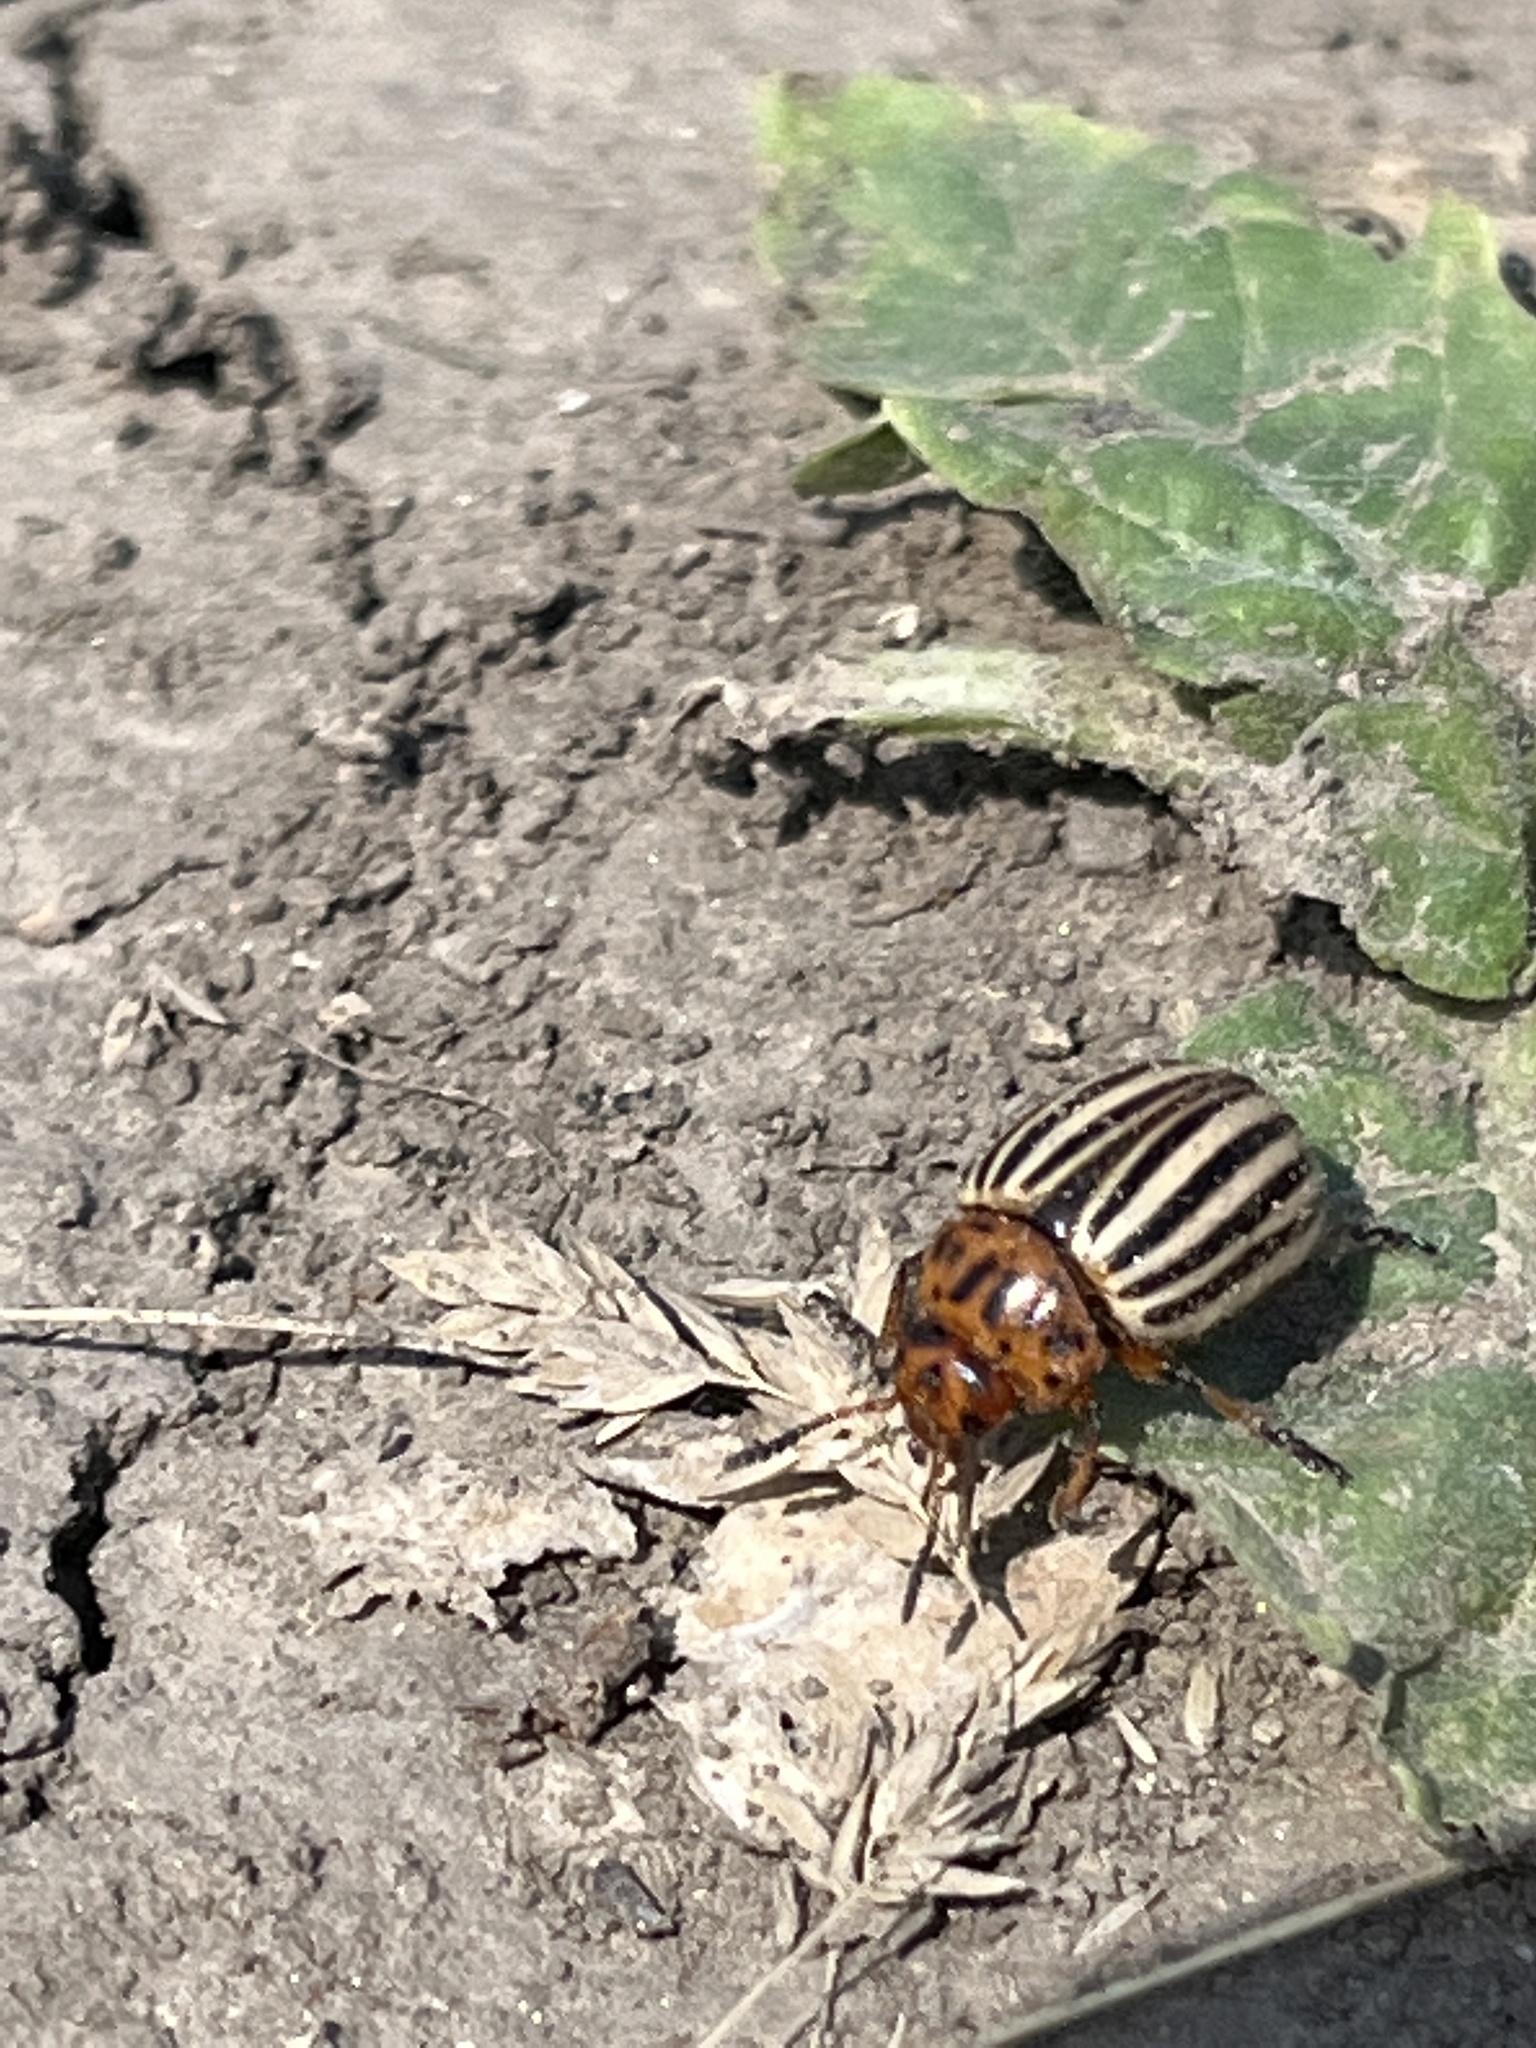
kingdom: Animalia
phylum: Arthropoda
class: Insecta
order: Coleoptera
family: Chrysomelidae
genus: Leptinotarsa
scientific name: Leptinotarsa decemlineata
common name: Colorado potato beetle
